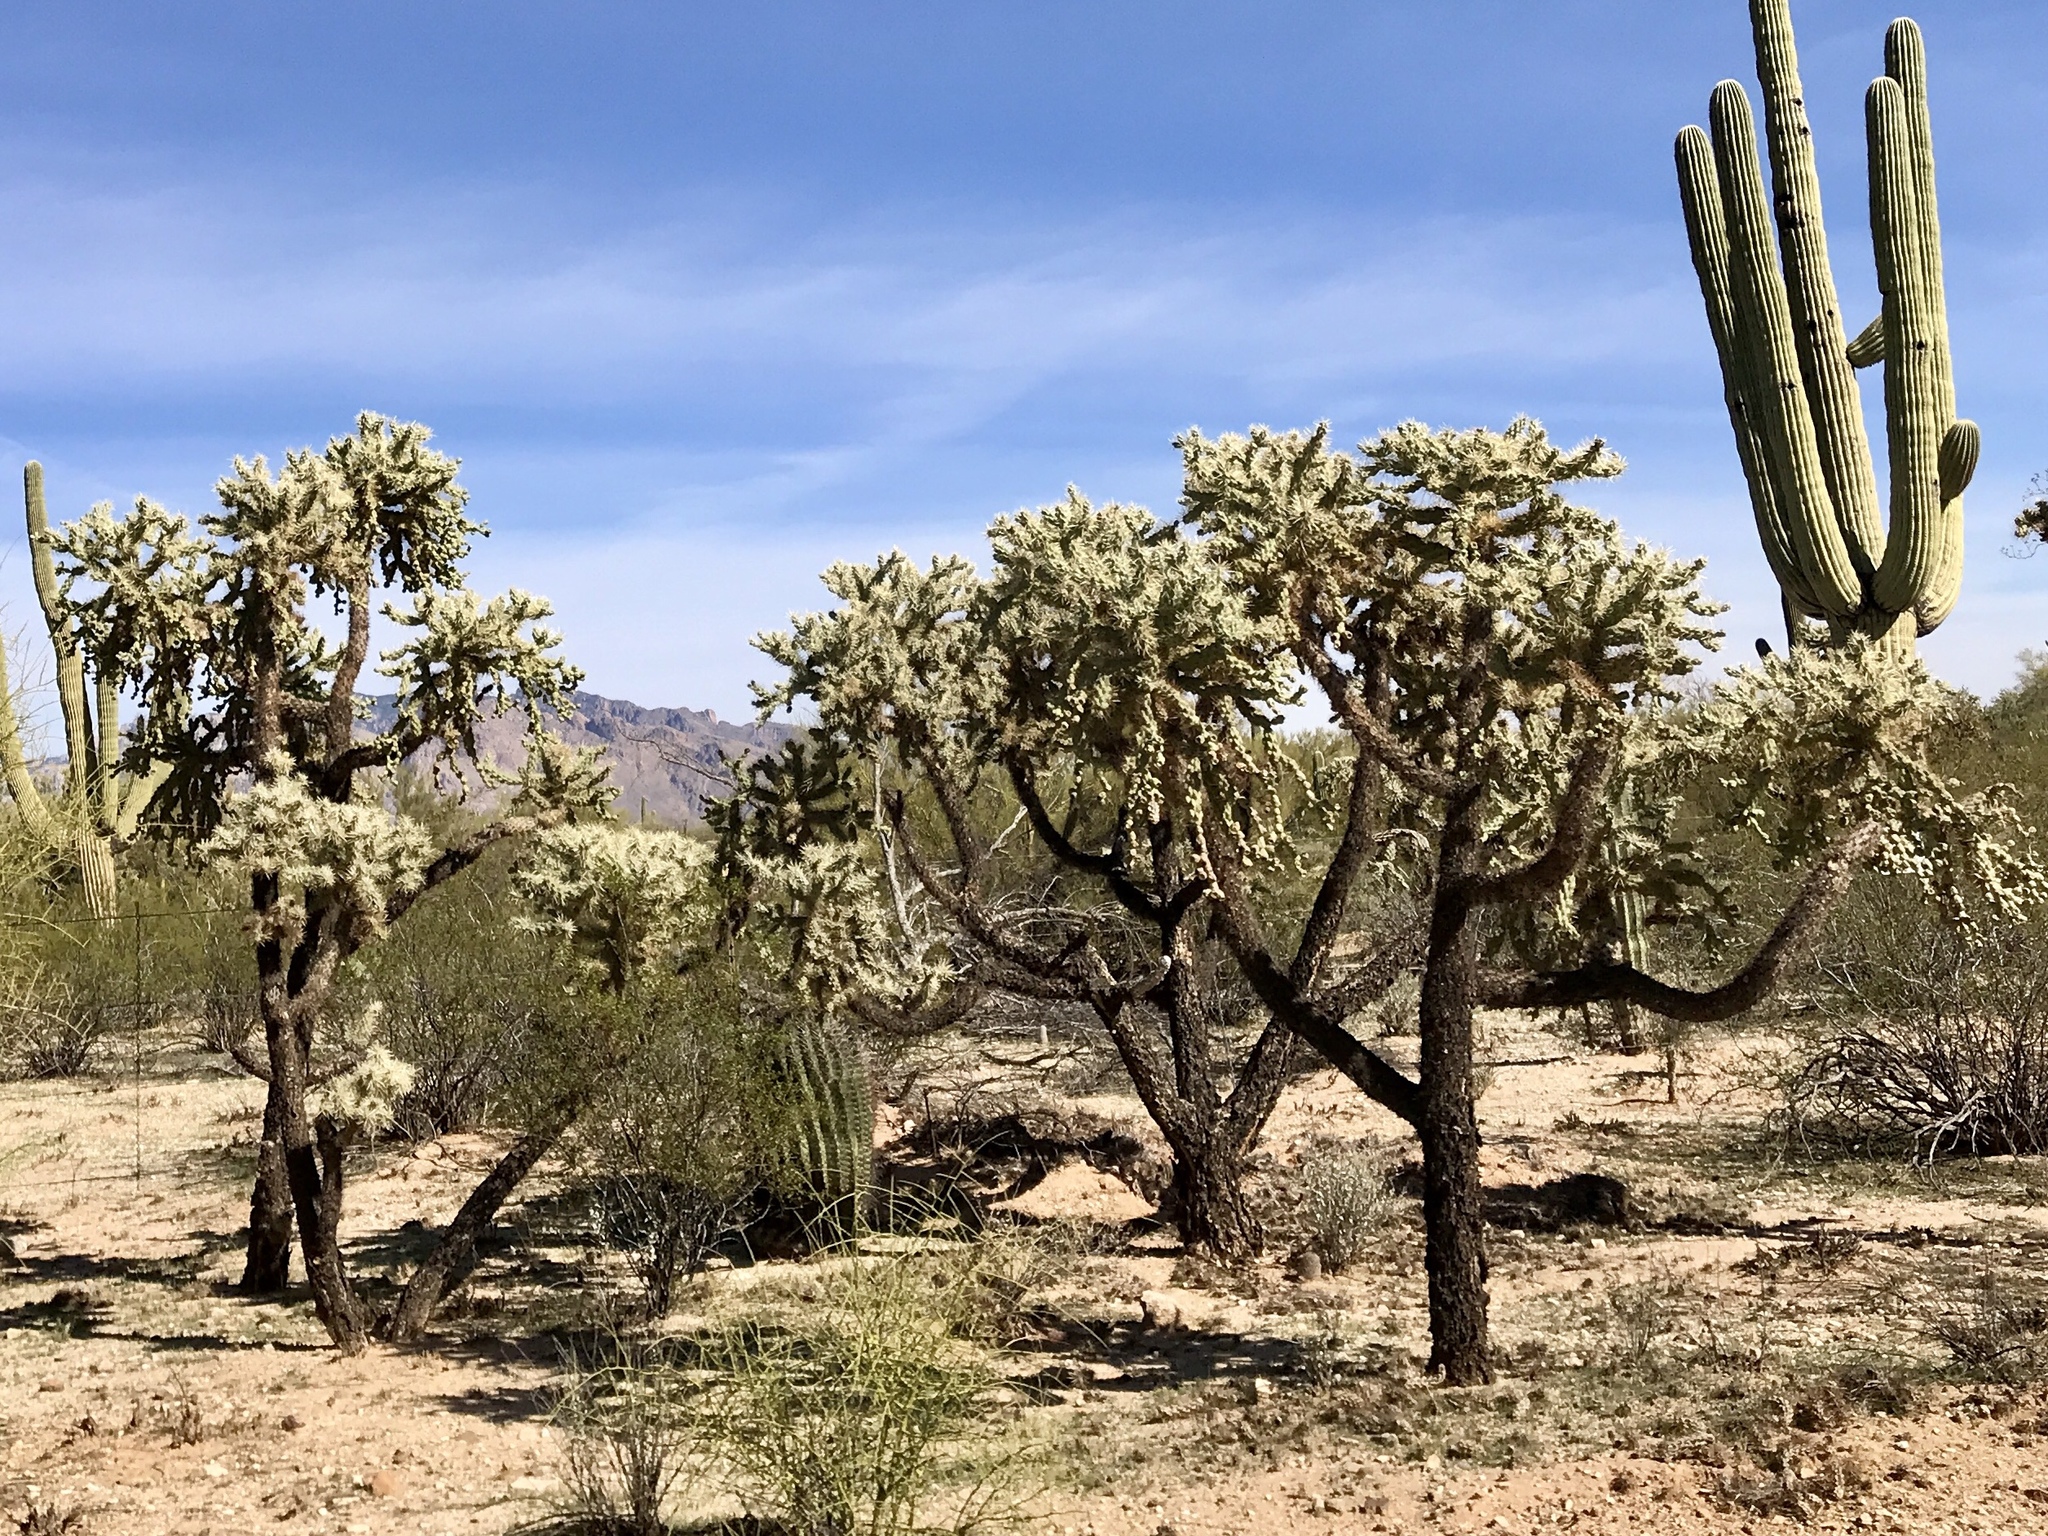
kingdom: Plantae
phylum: Tracheophyta
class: Magnoliopsida
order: Caryophyllales
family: Cactaceae
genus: Cylindropuntia
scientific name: Cylindropuntia fulgida
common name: Jumping cholla
